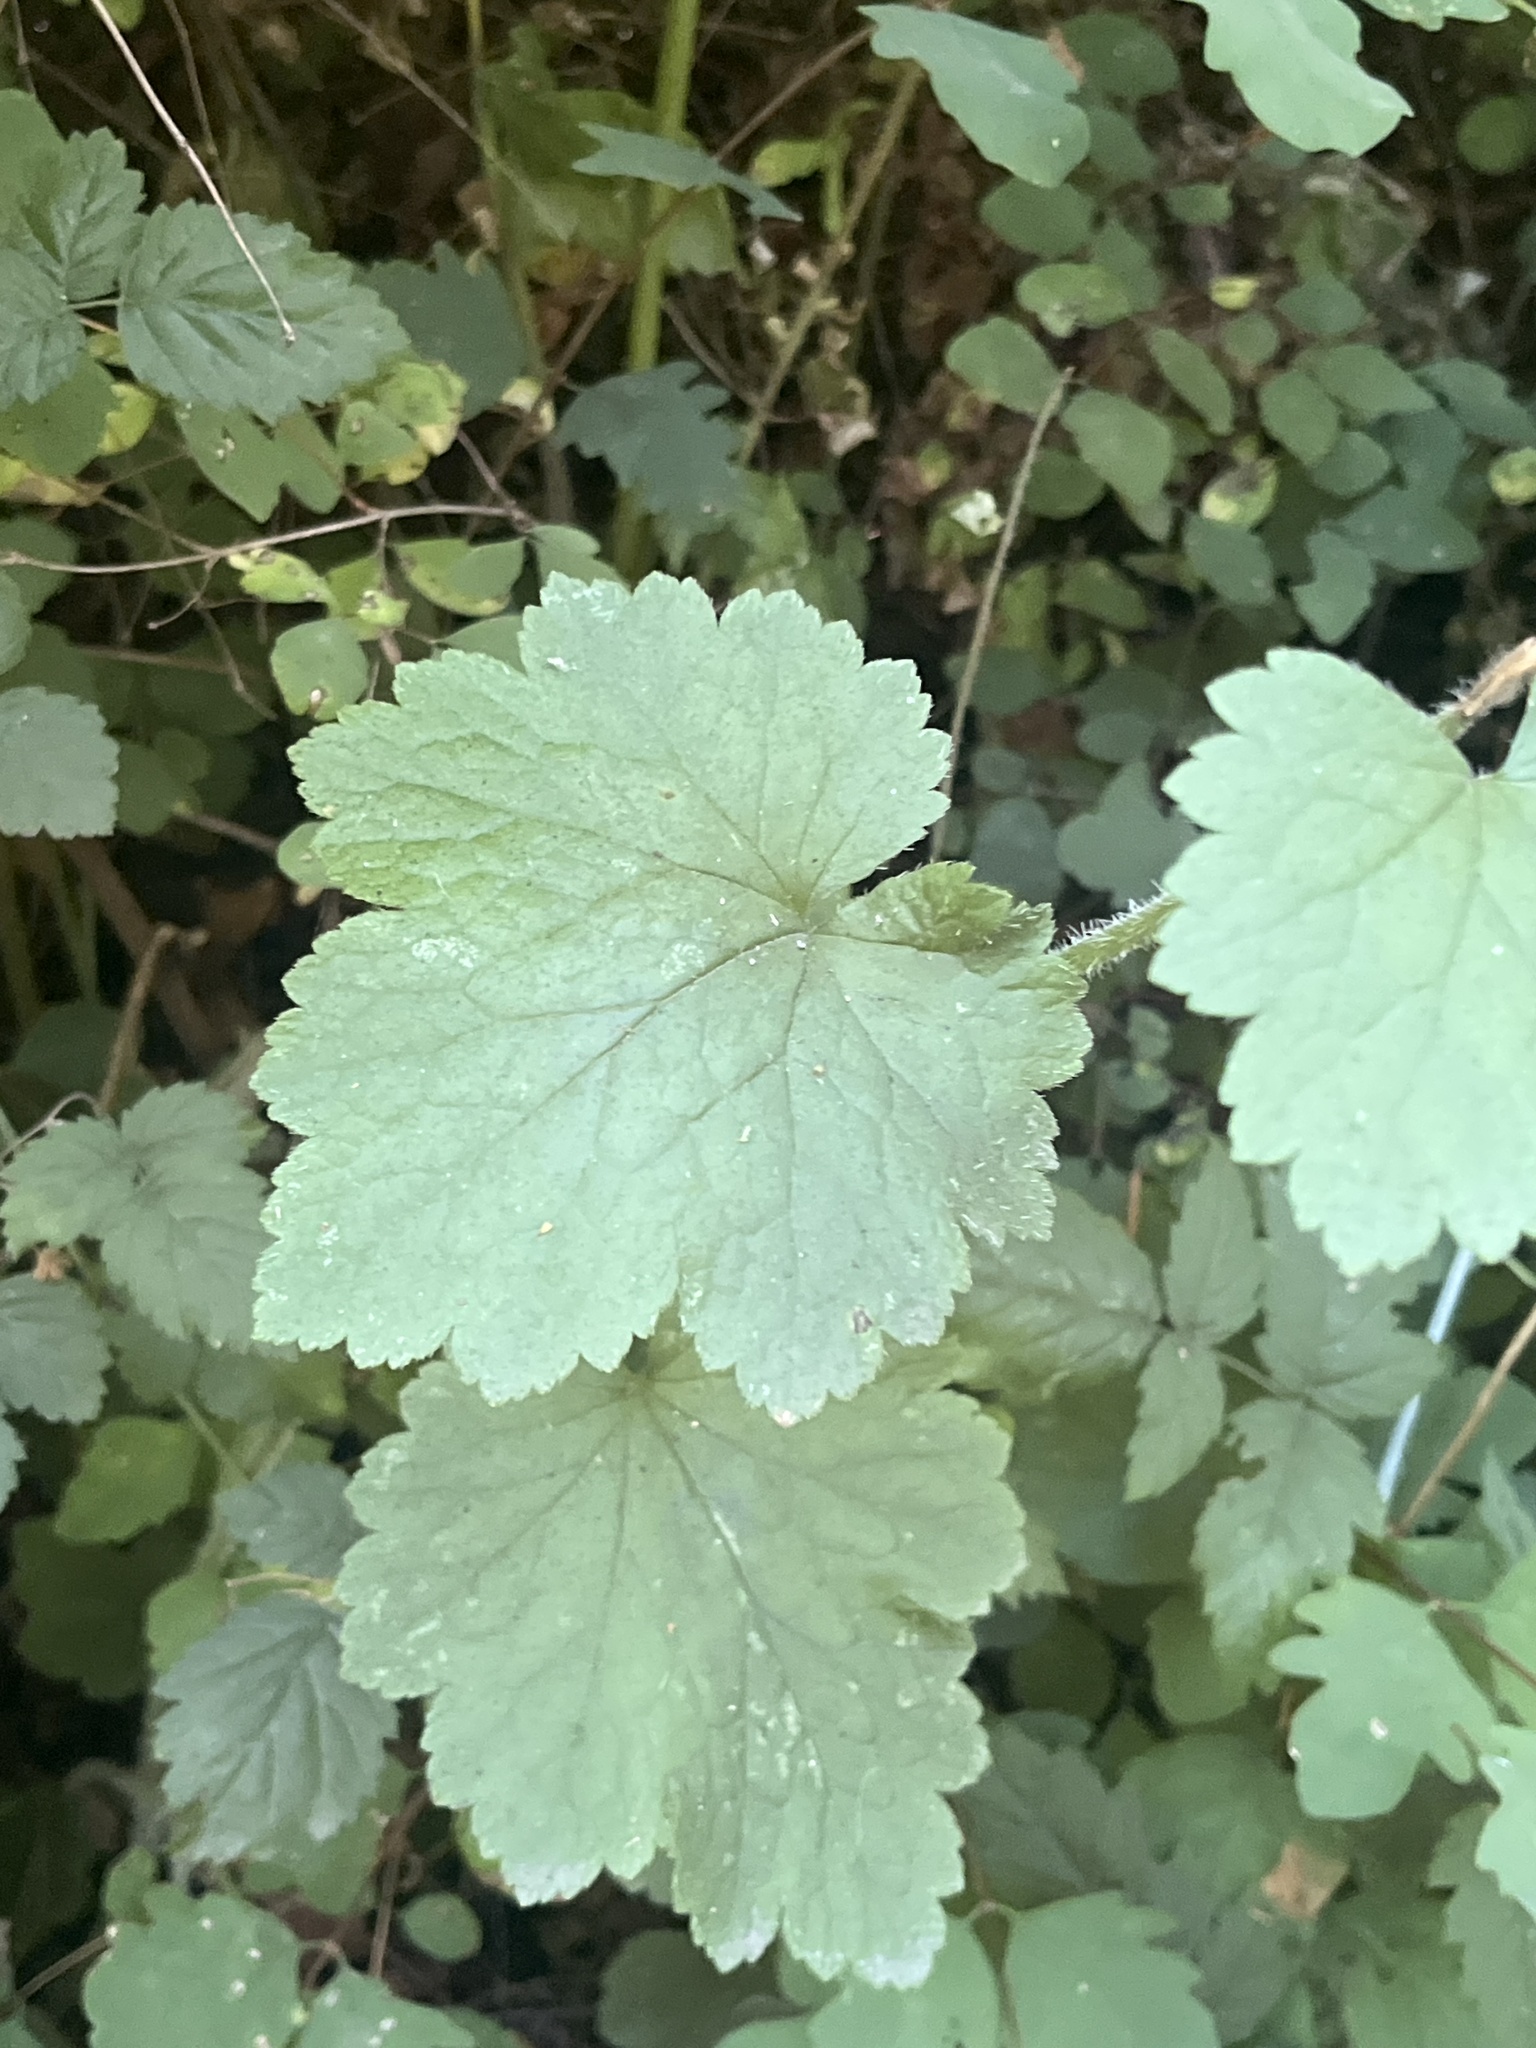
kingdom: Plantae
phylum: Tracheophyta
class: Magnoliopsida
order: Saxifragales
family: Saxifragaceae
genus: Tellima
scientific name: Tellima grandiflora
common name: Fringecups
